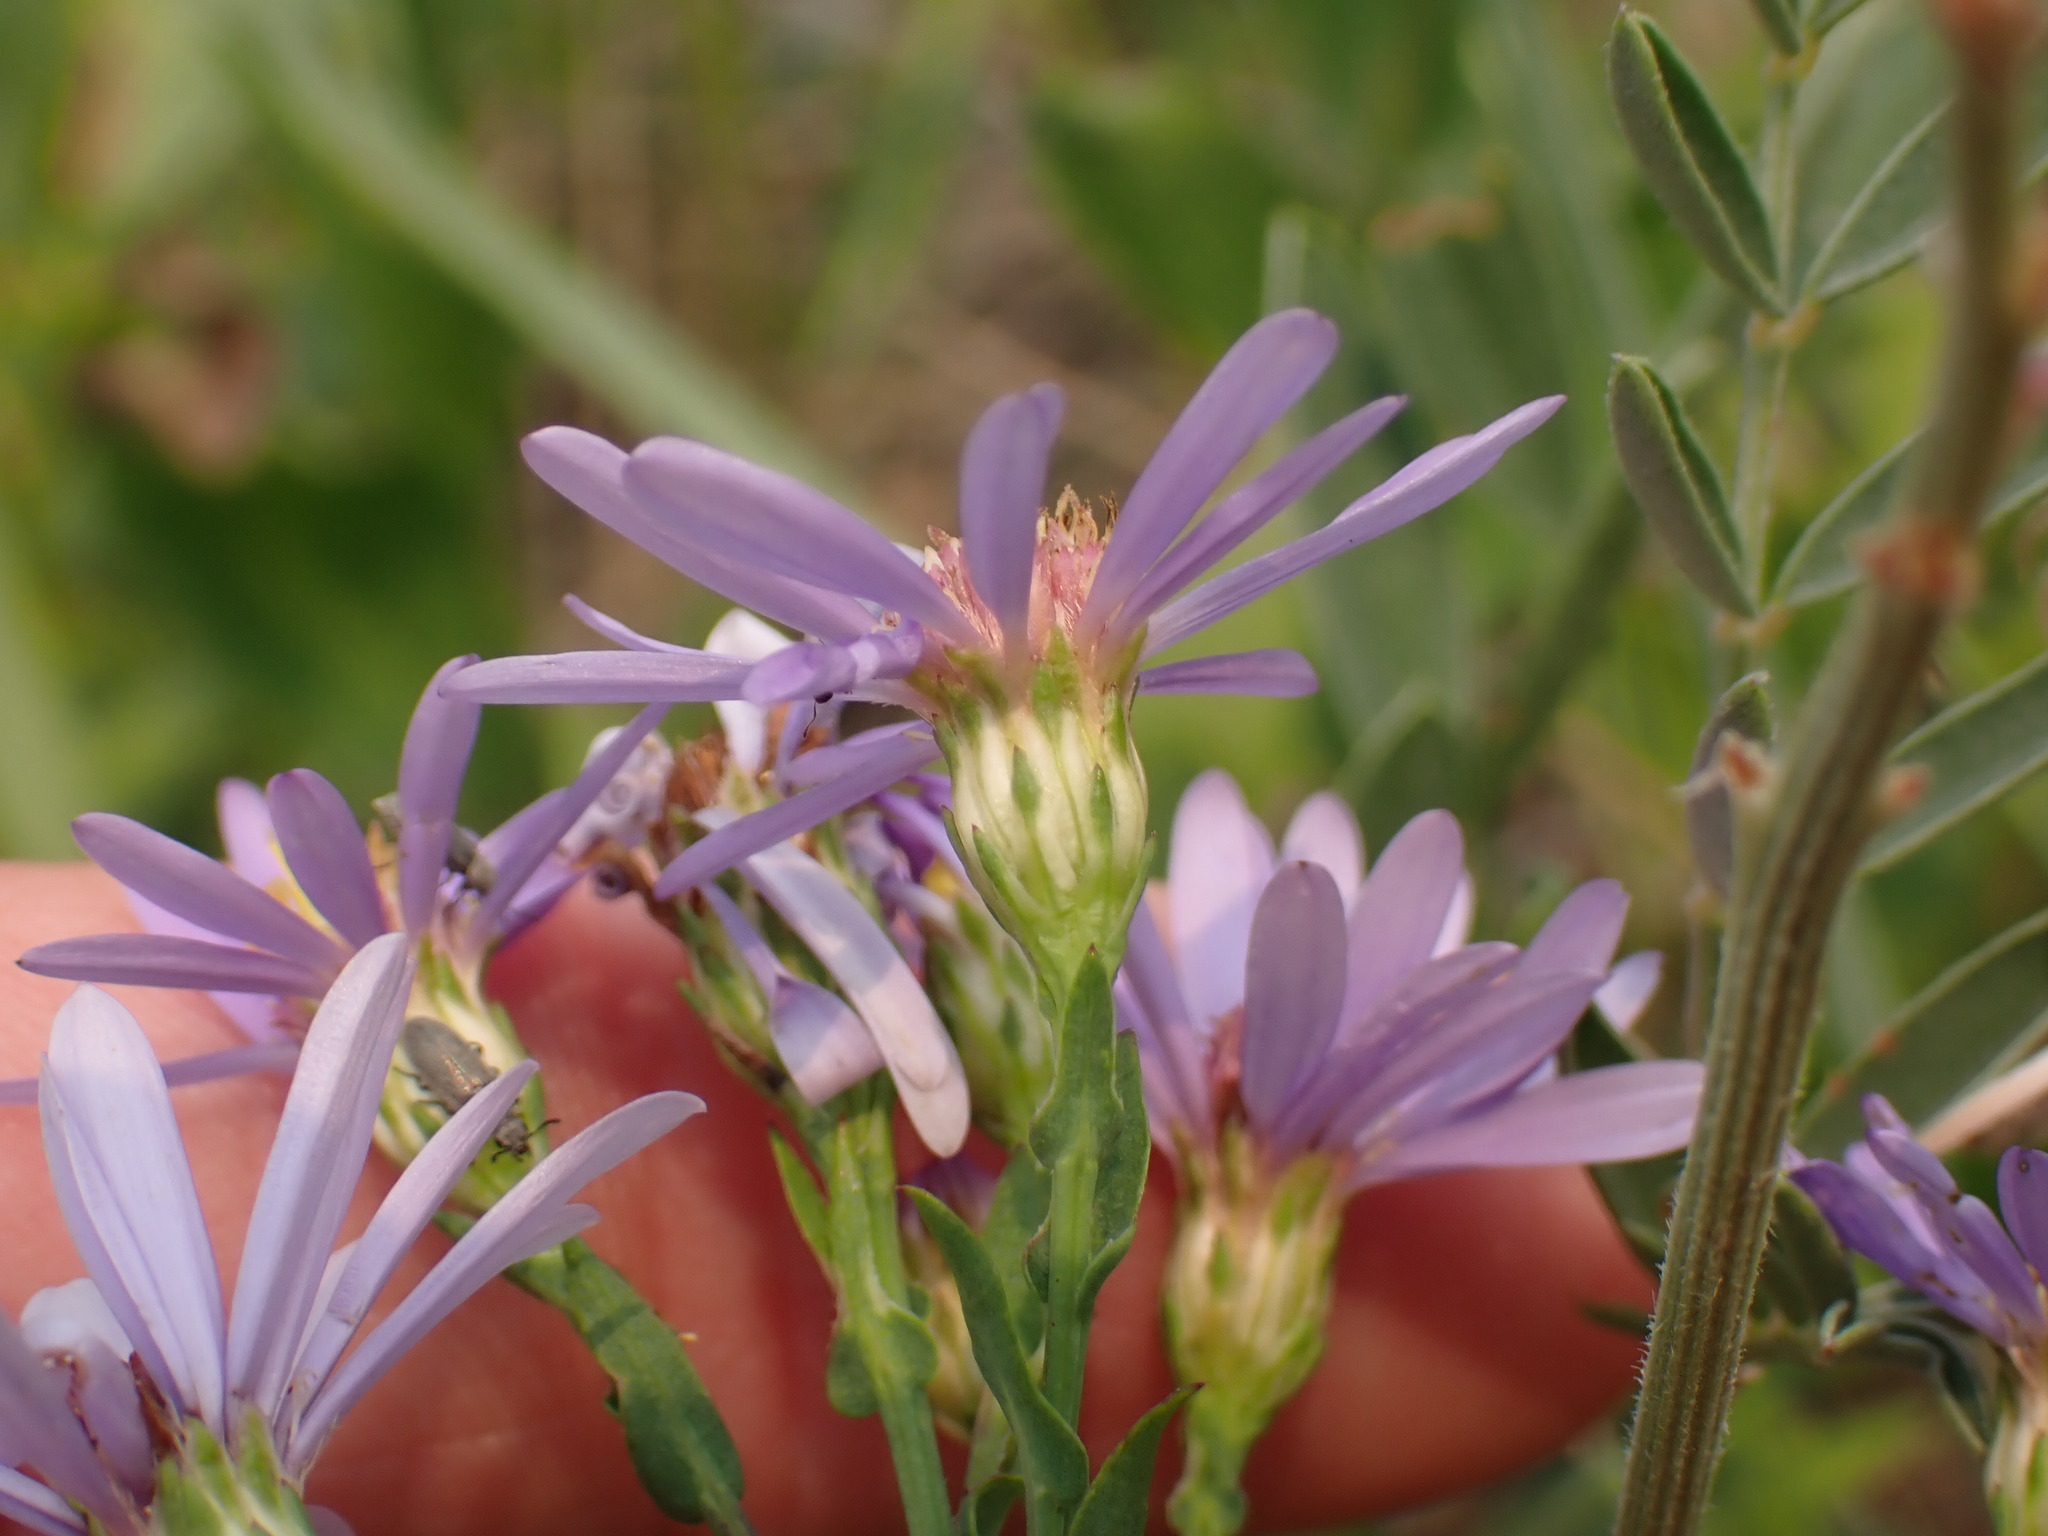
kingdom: Plantae
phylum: Tracheophyta
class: Magnoliopsida
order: Asterales
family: Asteraceae
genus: Symphyotrichum
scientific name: Symphyotrichum laeve
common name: Glaucous aster
